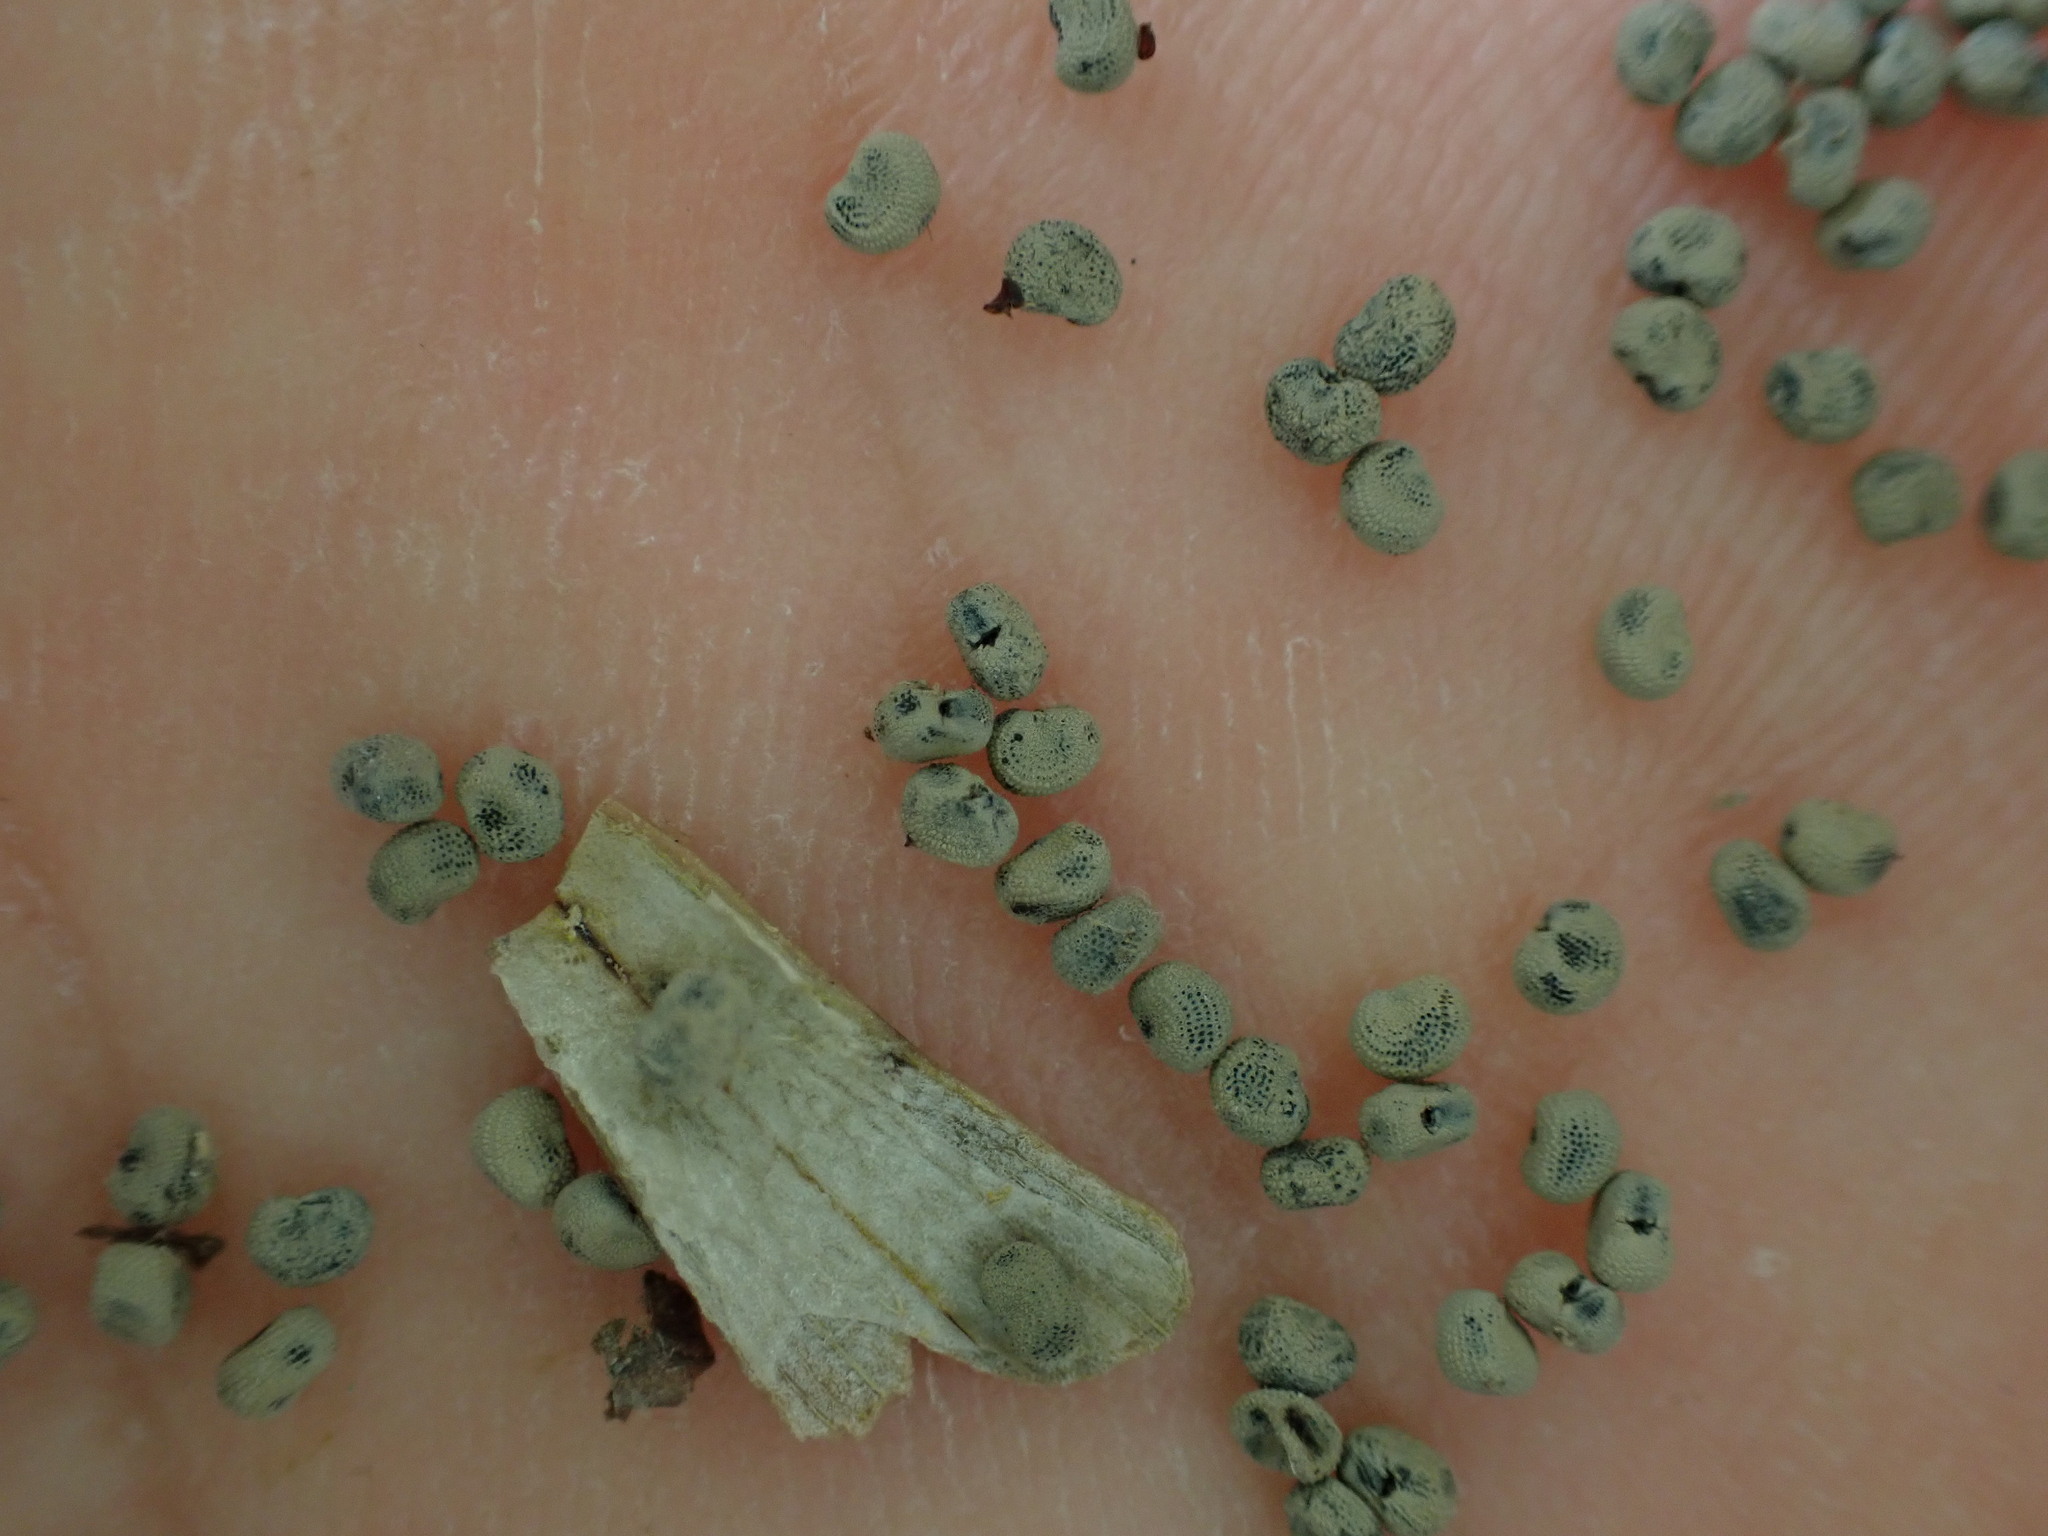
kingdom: Plantae
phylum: Tracheophyta
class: Magnoliopsida
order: Caryophyllales
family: Caryophyllaceae
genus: Silene
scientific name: Silene latifolia
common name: White campion
